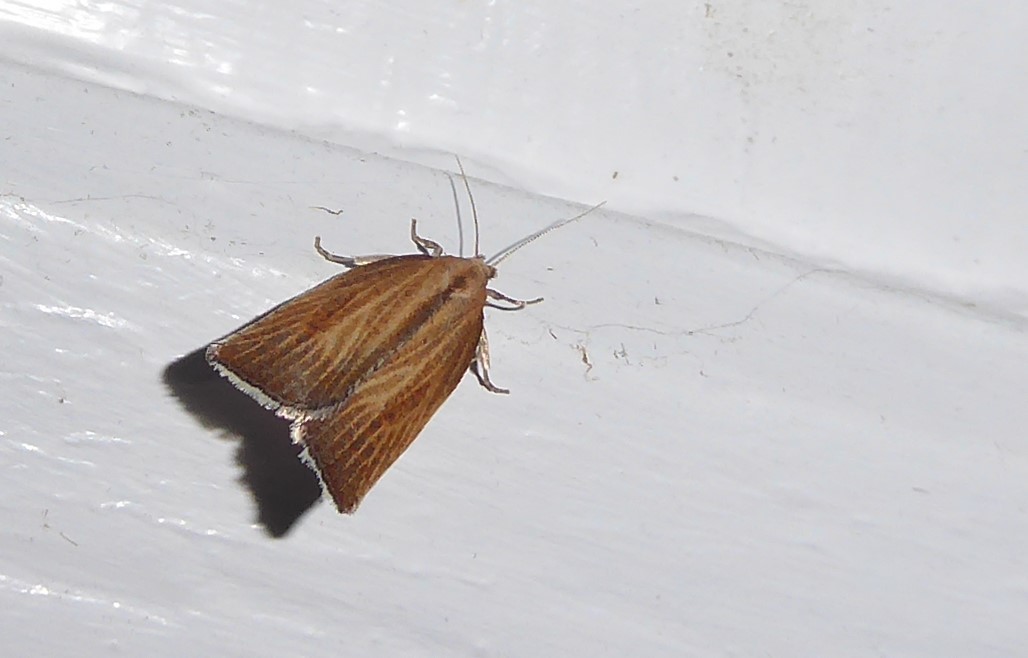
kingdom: Animalia
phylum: Arthropoda
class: Insecta
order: Lepidoptera
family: Tortricidae
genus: Catamacta
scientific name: Catamacta lotinana
